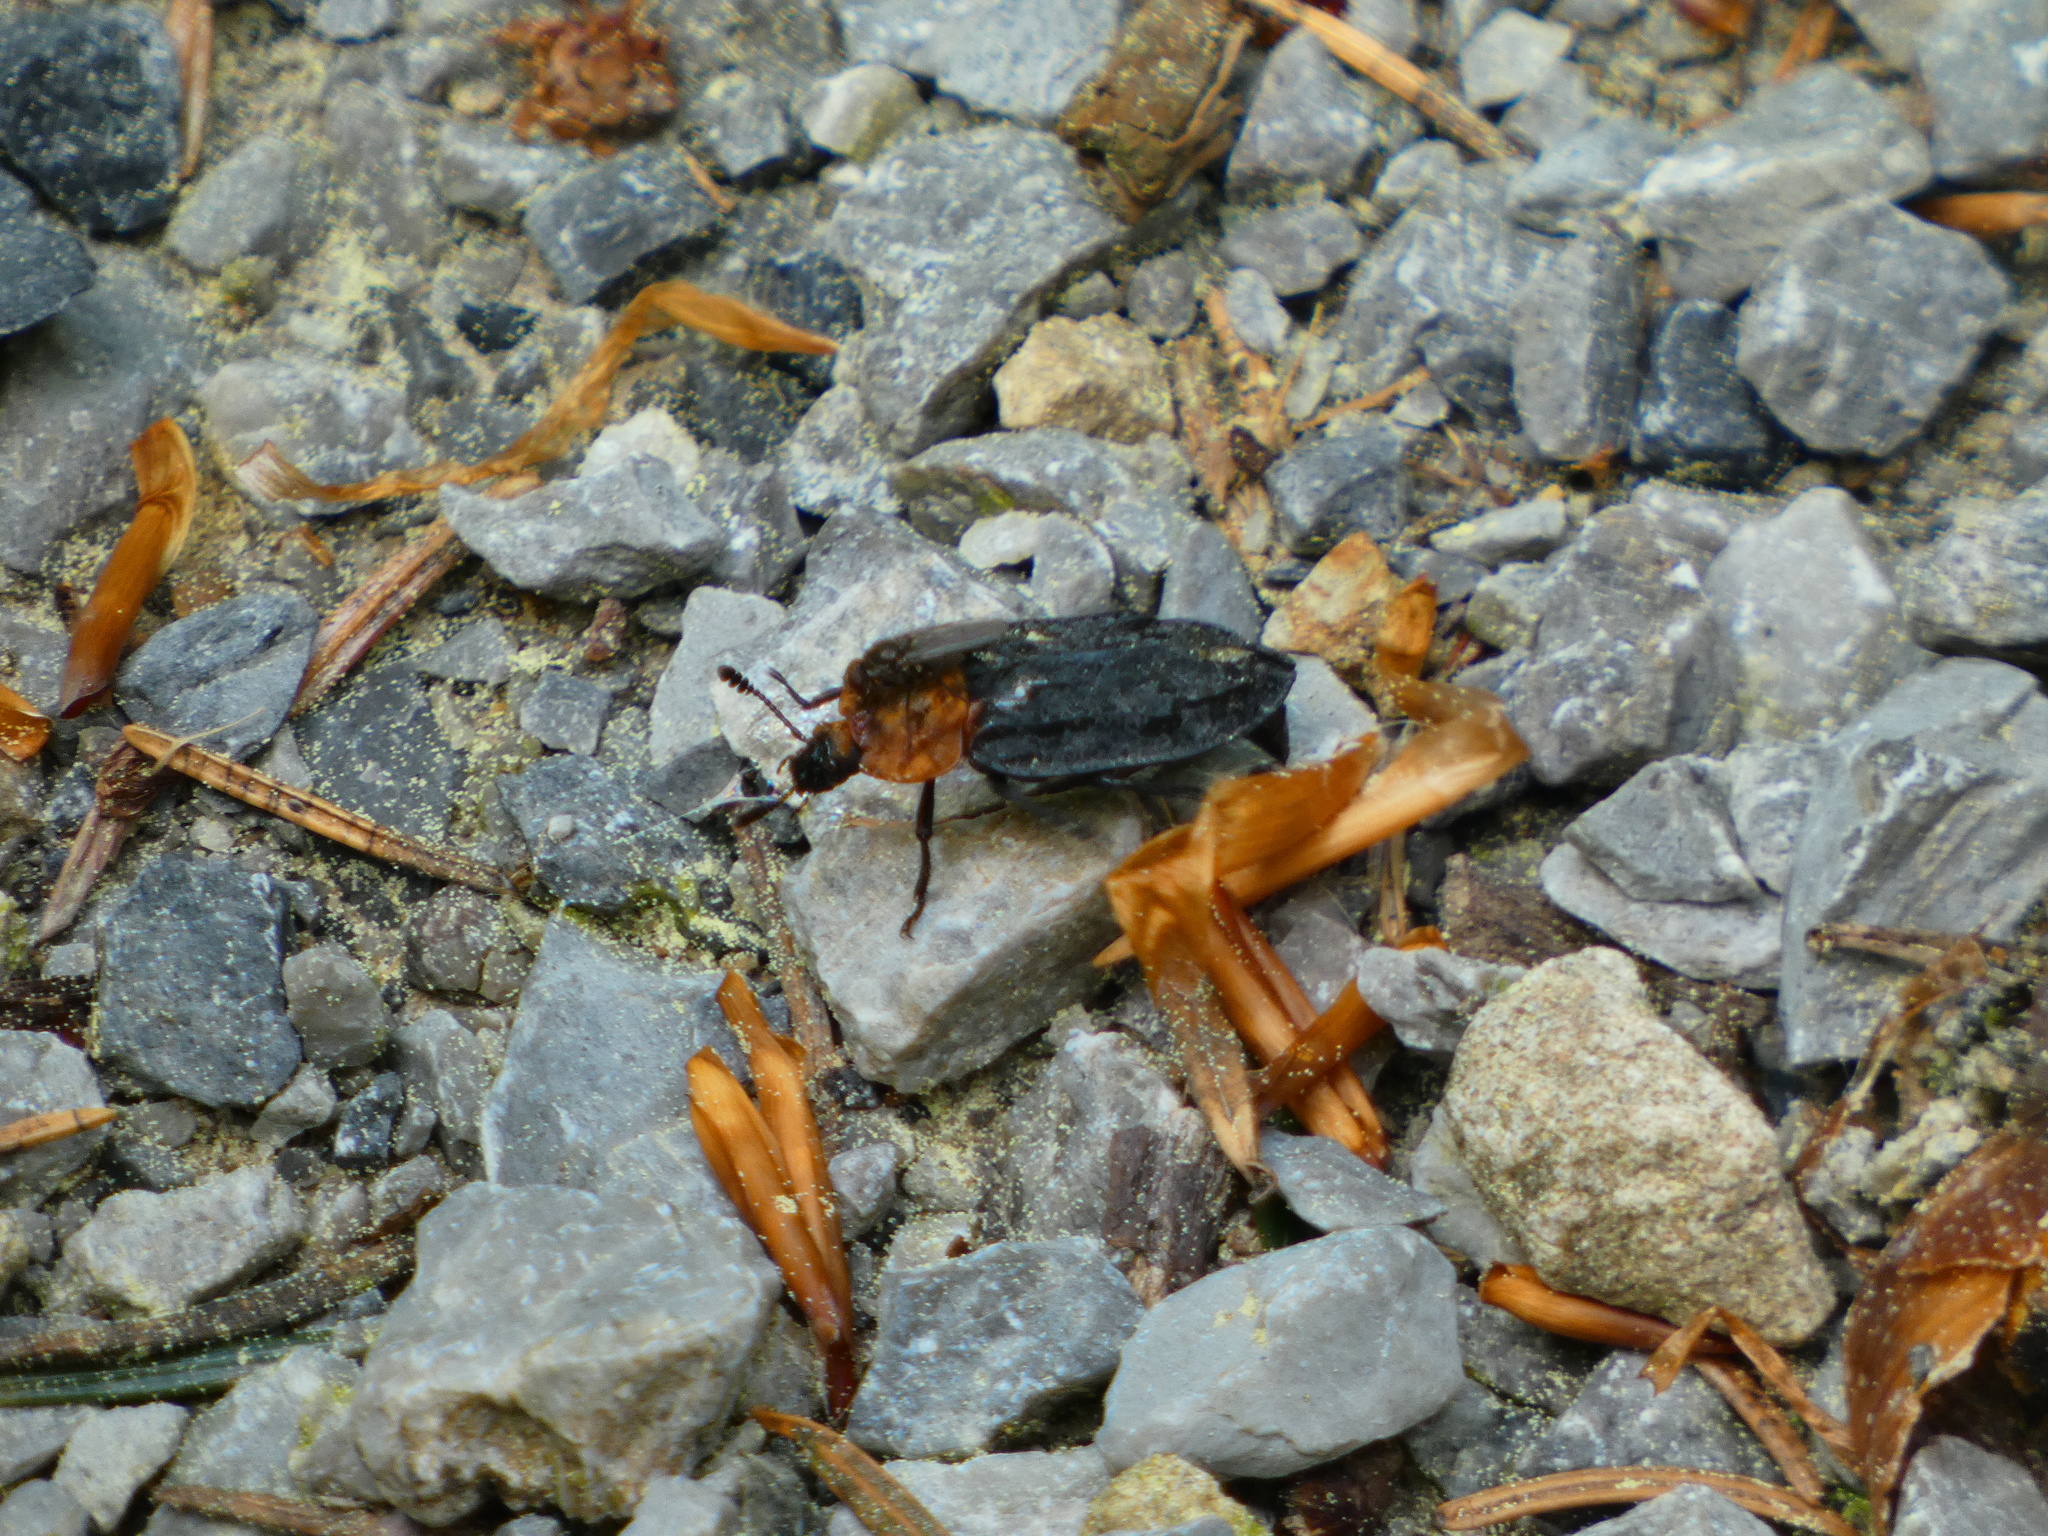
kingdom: Animalia
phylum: Arthropoda
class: Insecta
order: Coleoptera
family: Staphylinidae
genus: Oiceoptoma
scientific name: Oiceoptoma thoracicum
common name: Red-breasted carrion beetle
